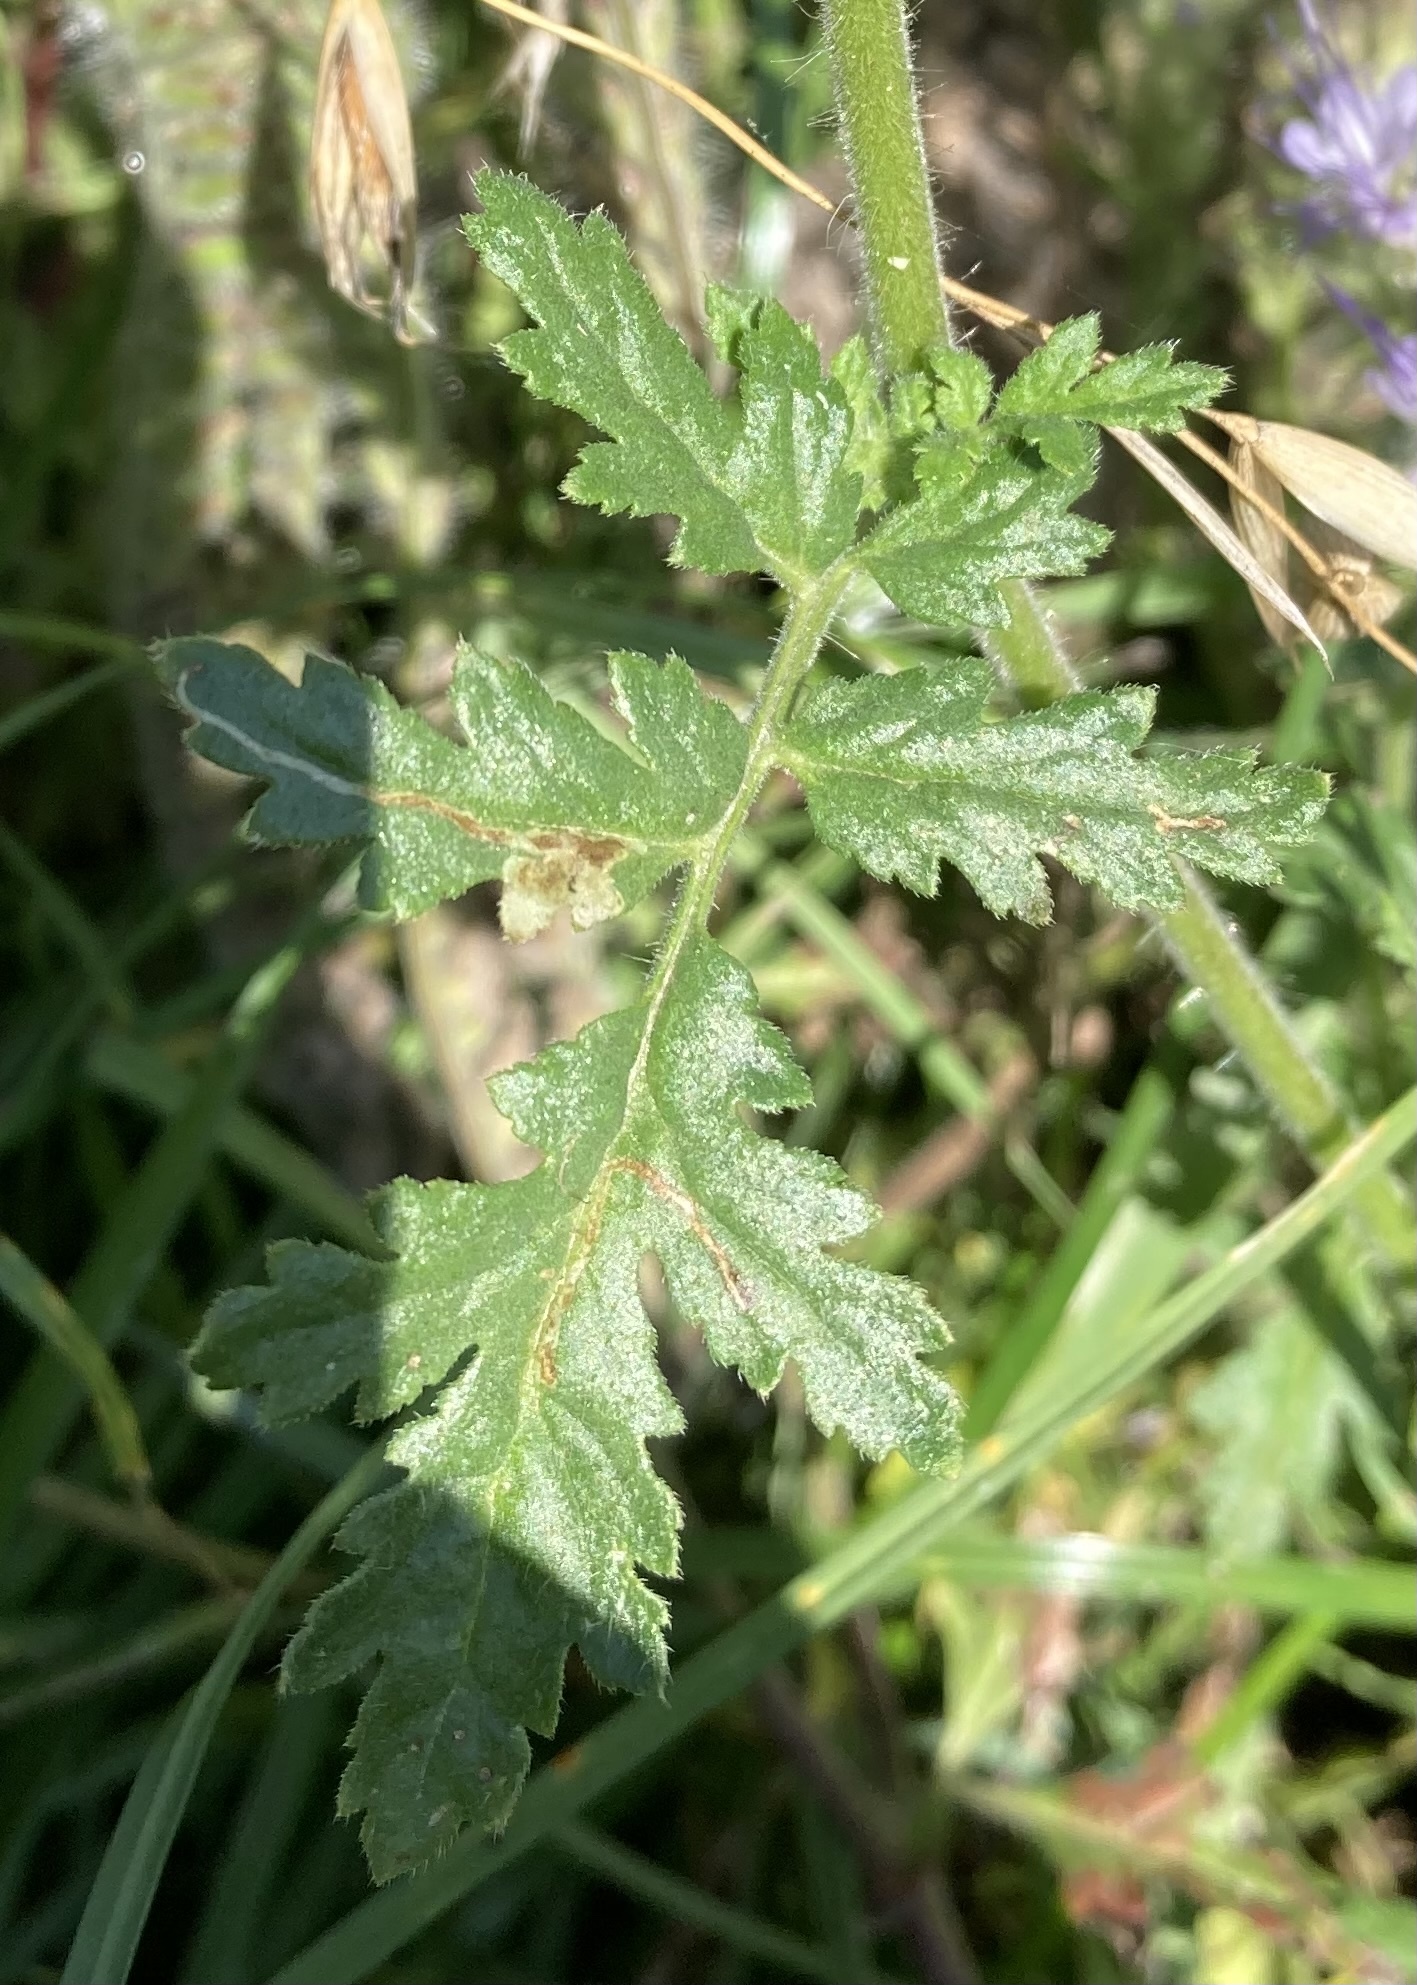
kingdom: Plantae
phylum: Tracheophyta
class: Magnoliopsida
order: Boraginales
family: Hydrophyllaceae
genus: Phacelia
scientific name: Phacelia tanacetifolia
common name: Phacelia
